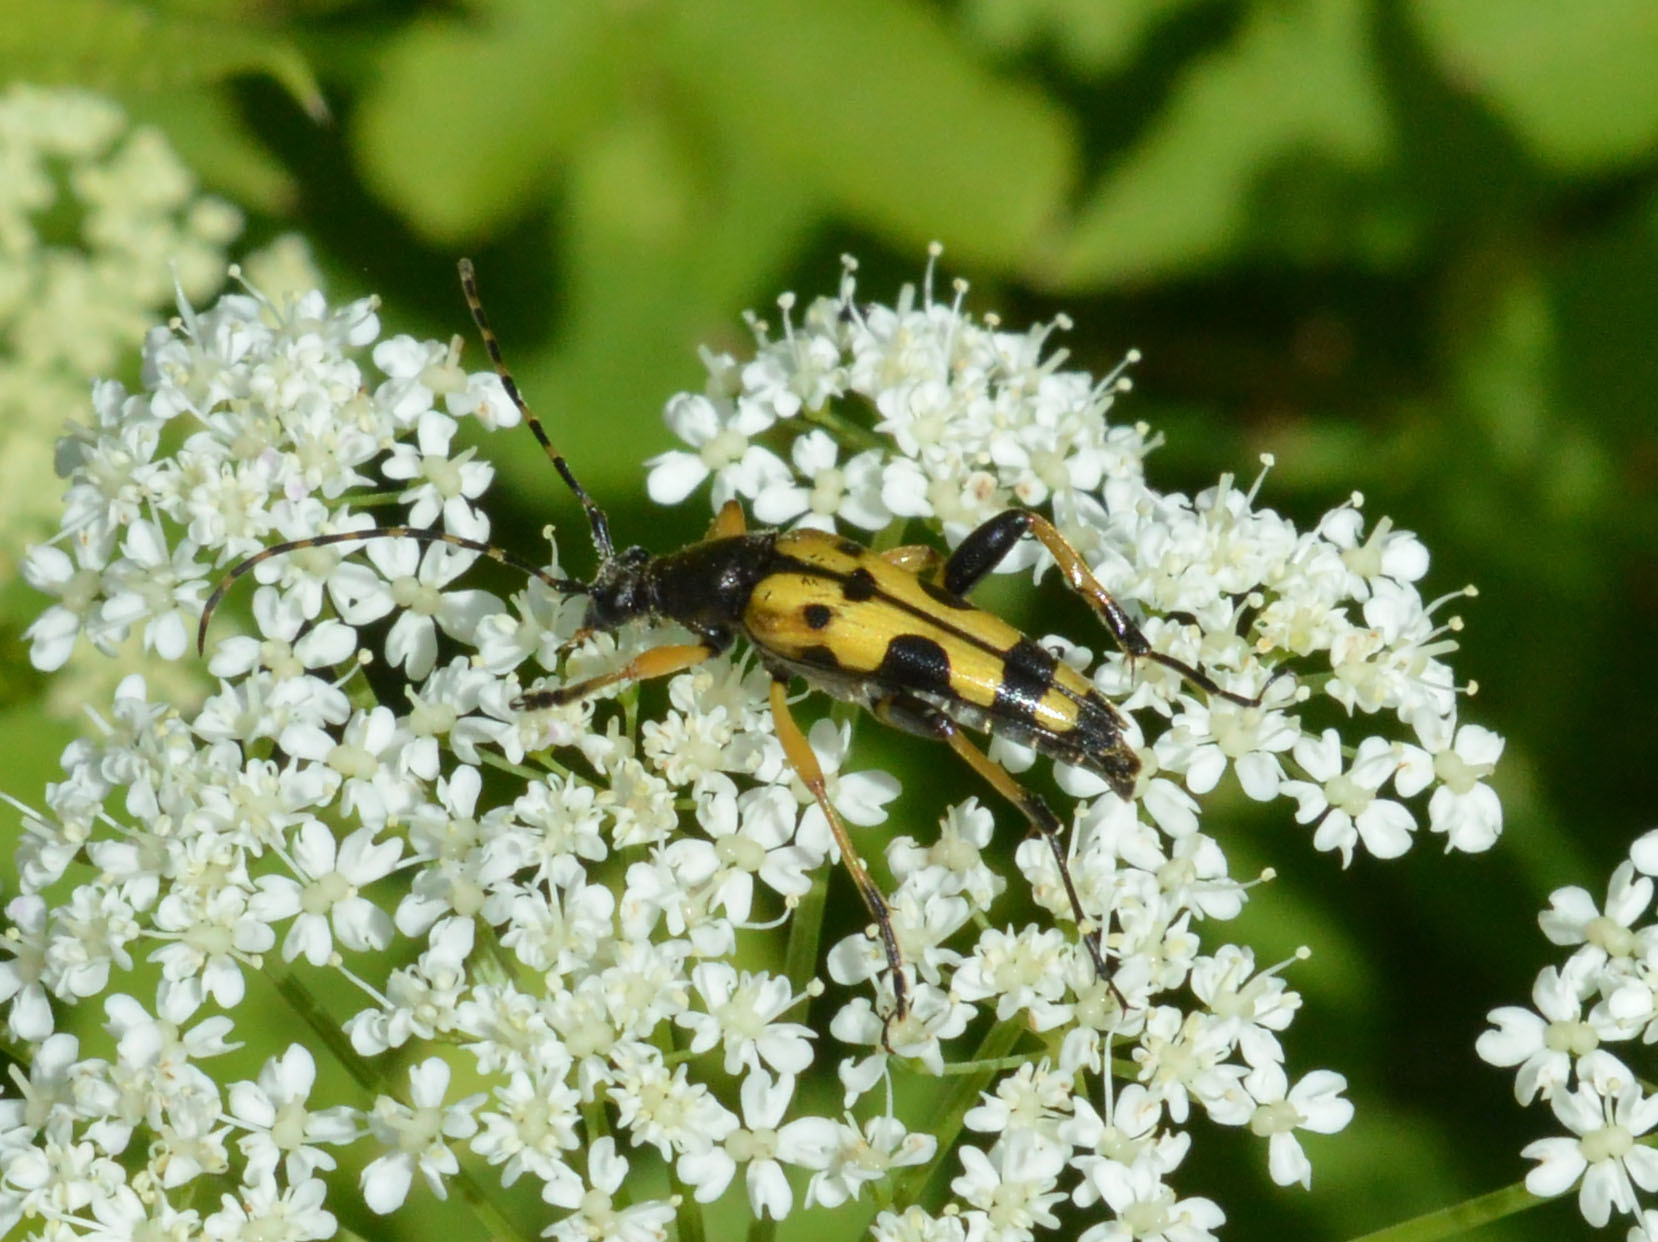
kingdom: Animalia
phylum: Arthropoda
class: Insecta
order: Coleoptera
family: Cerambycidae
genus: Rutpela
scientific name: Rutpela maculata
